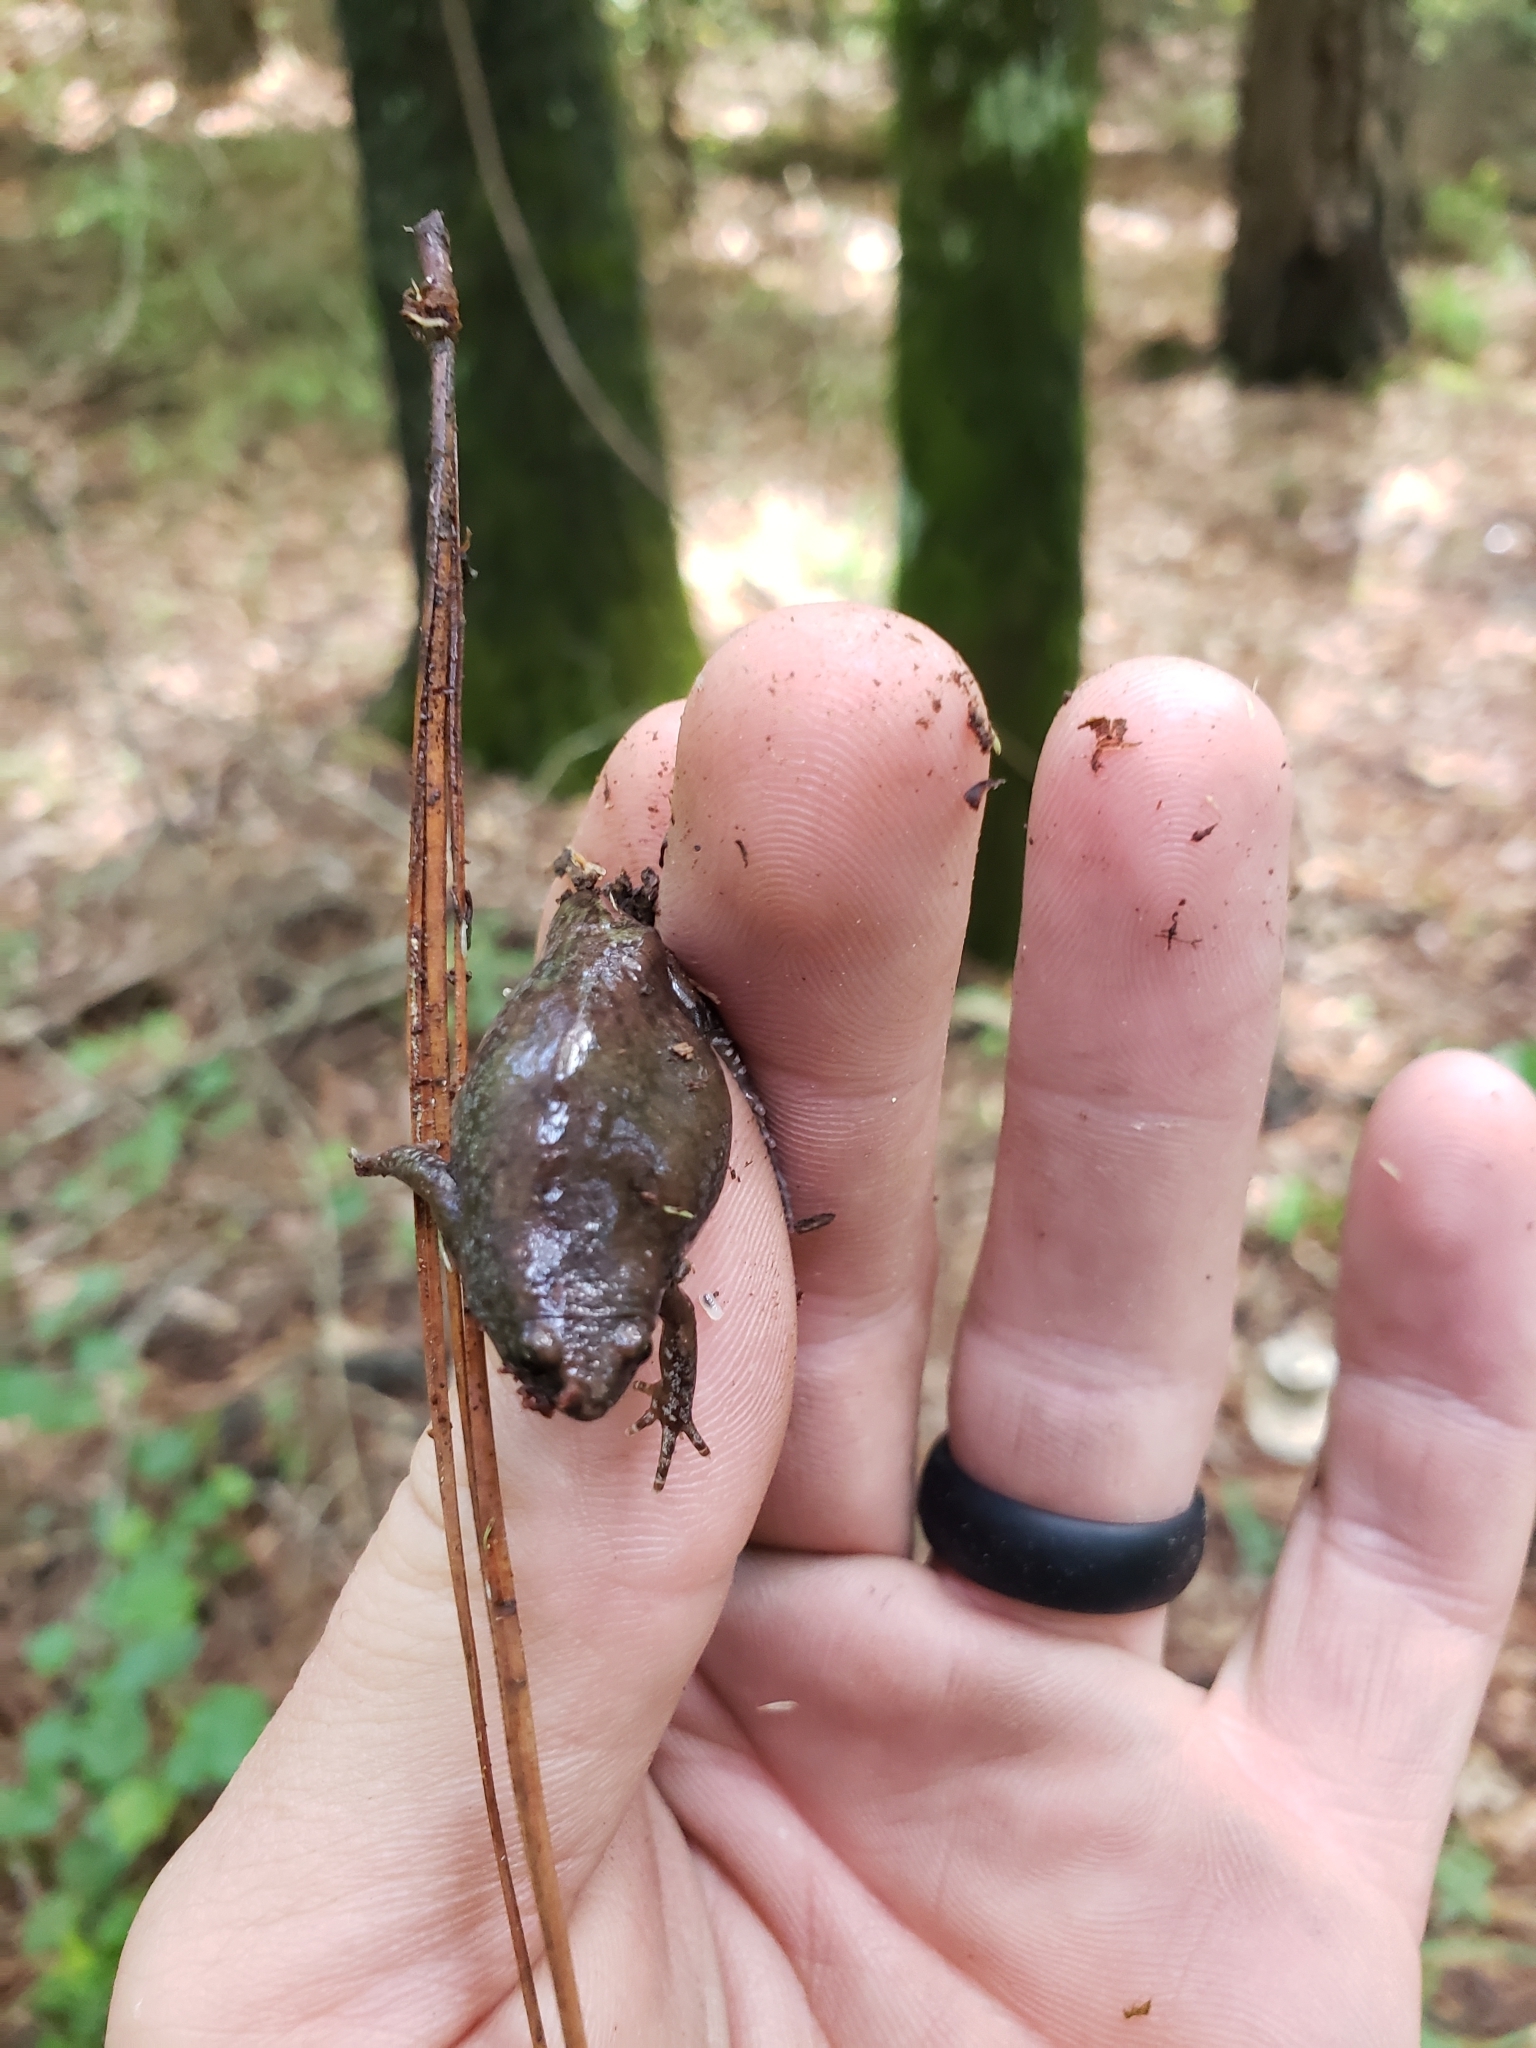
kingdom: Animalia
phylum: Chordata
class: Amphibia
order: Anura
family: Microhylidae
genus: Gastrophryne
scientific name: Gastrophryne carolinensis
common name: Eastern narrowmouth toad
